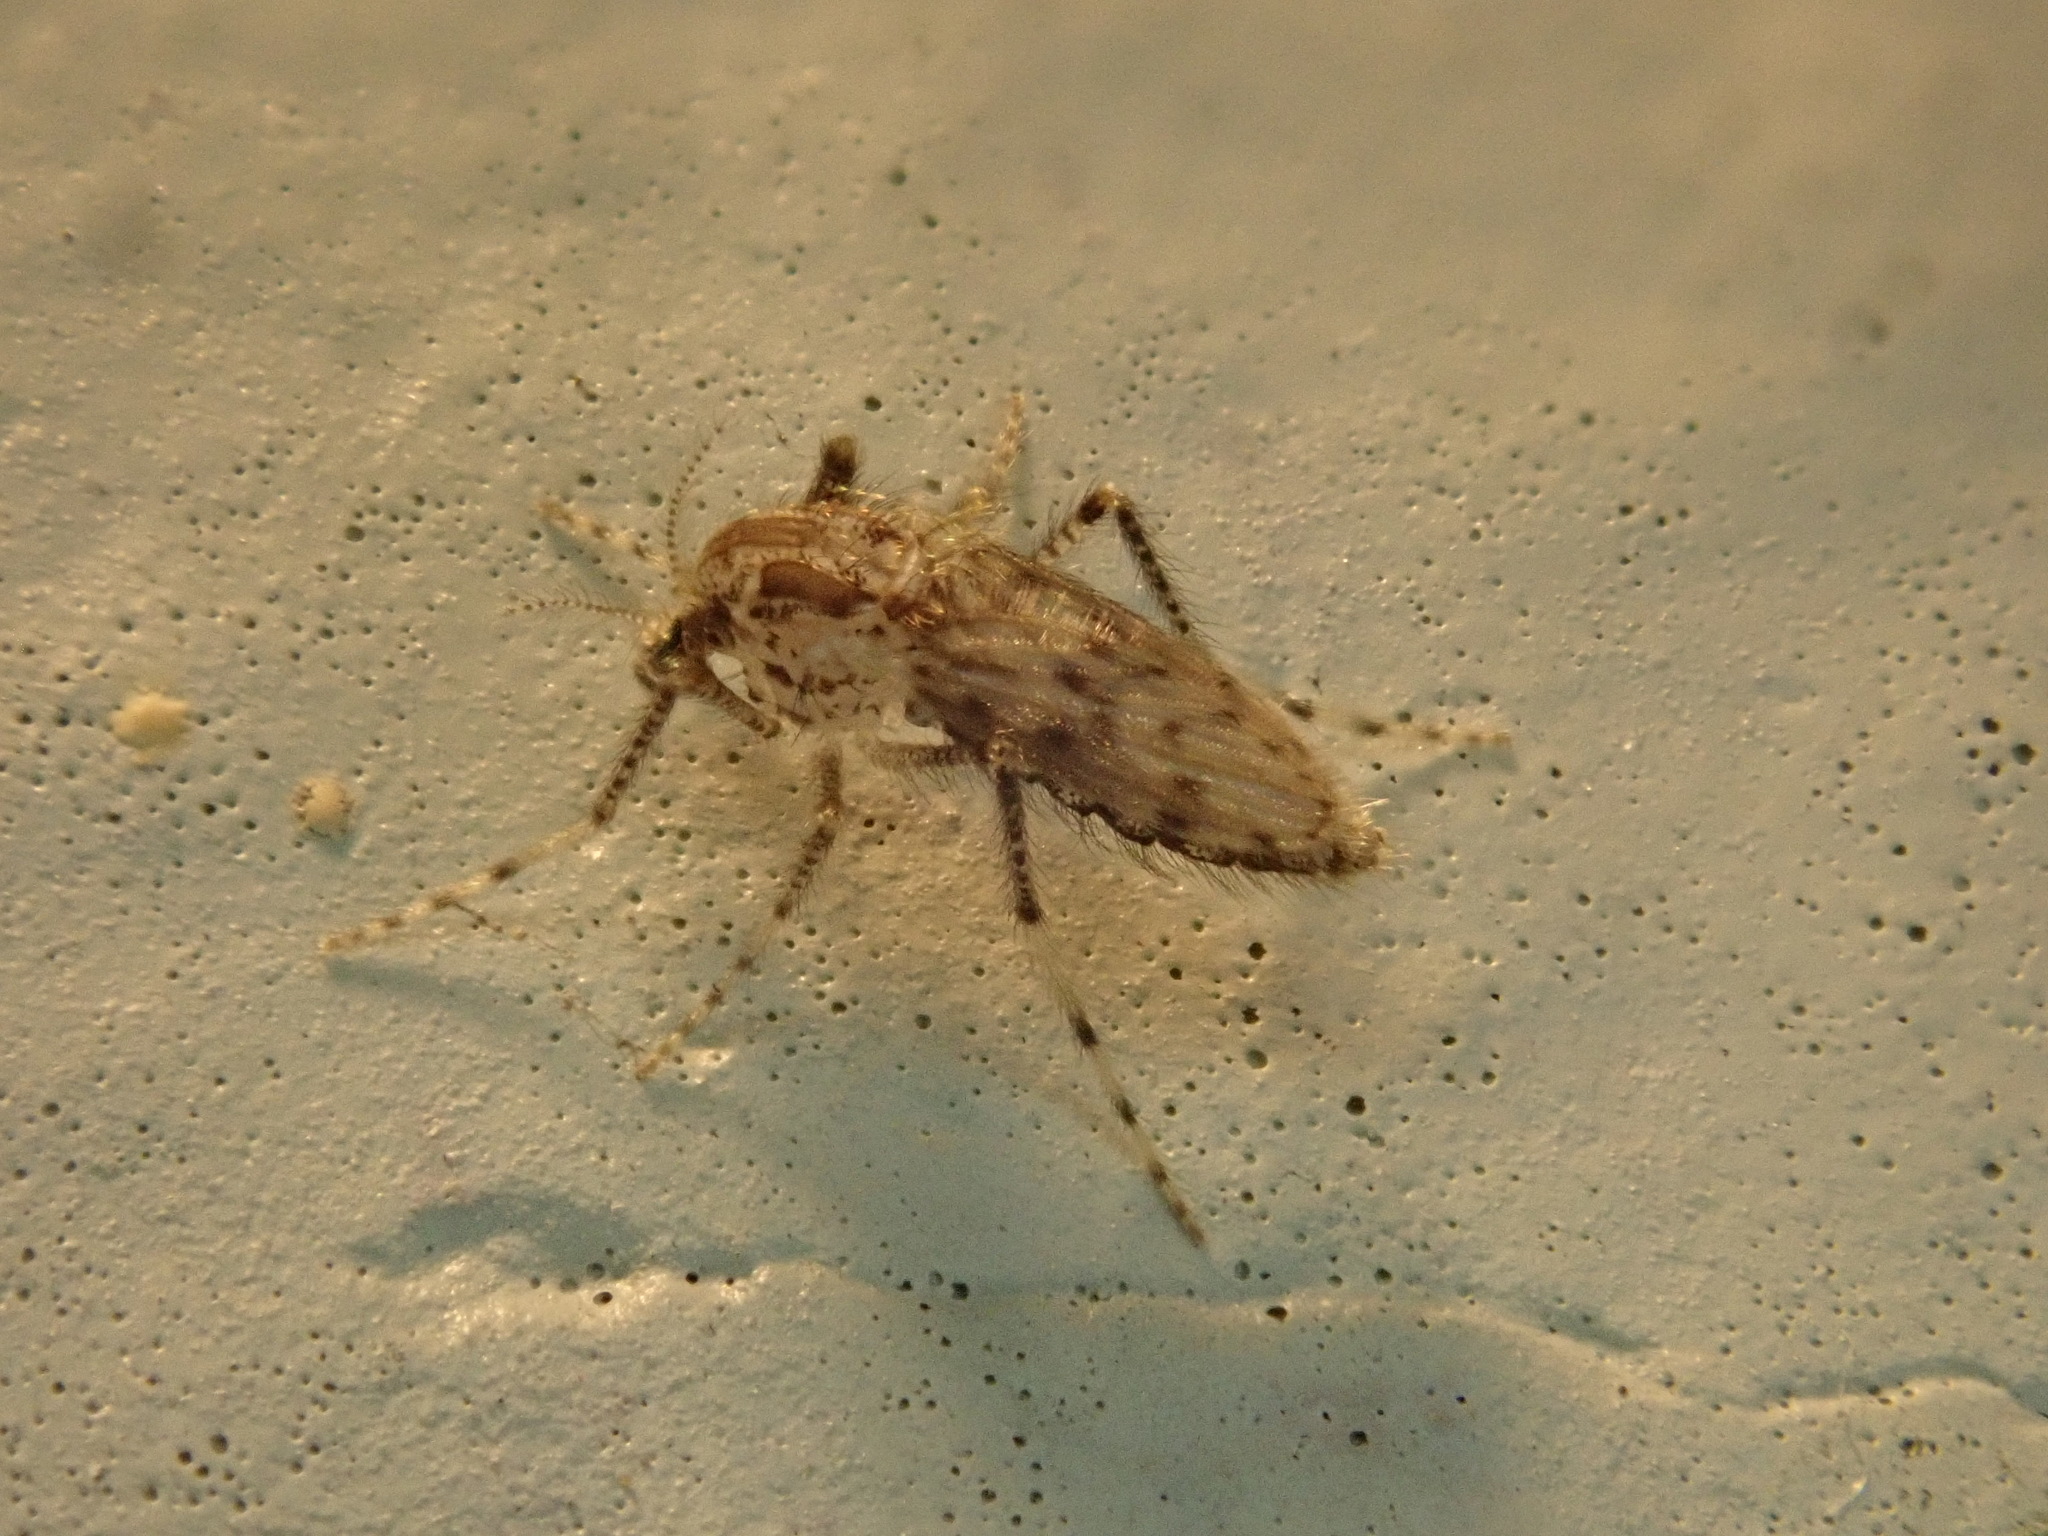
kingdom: Animalia
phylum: Arthropoda
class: Insecta
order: Diptera
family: Chaoboridae
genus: Chaoborus
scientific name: Chaoborus punctipennis
